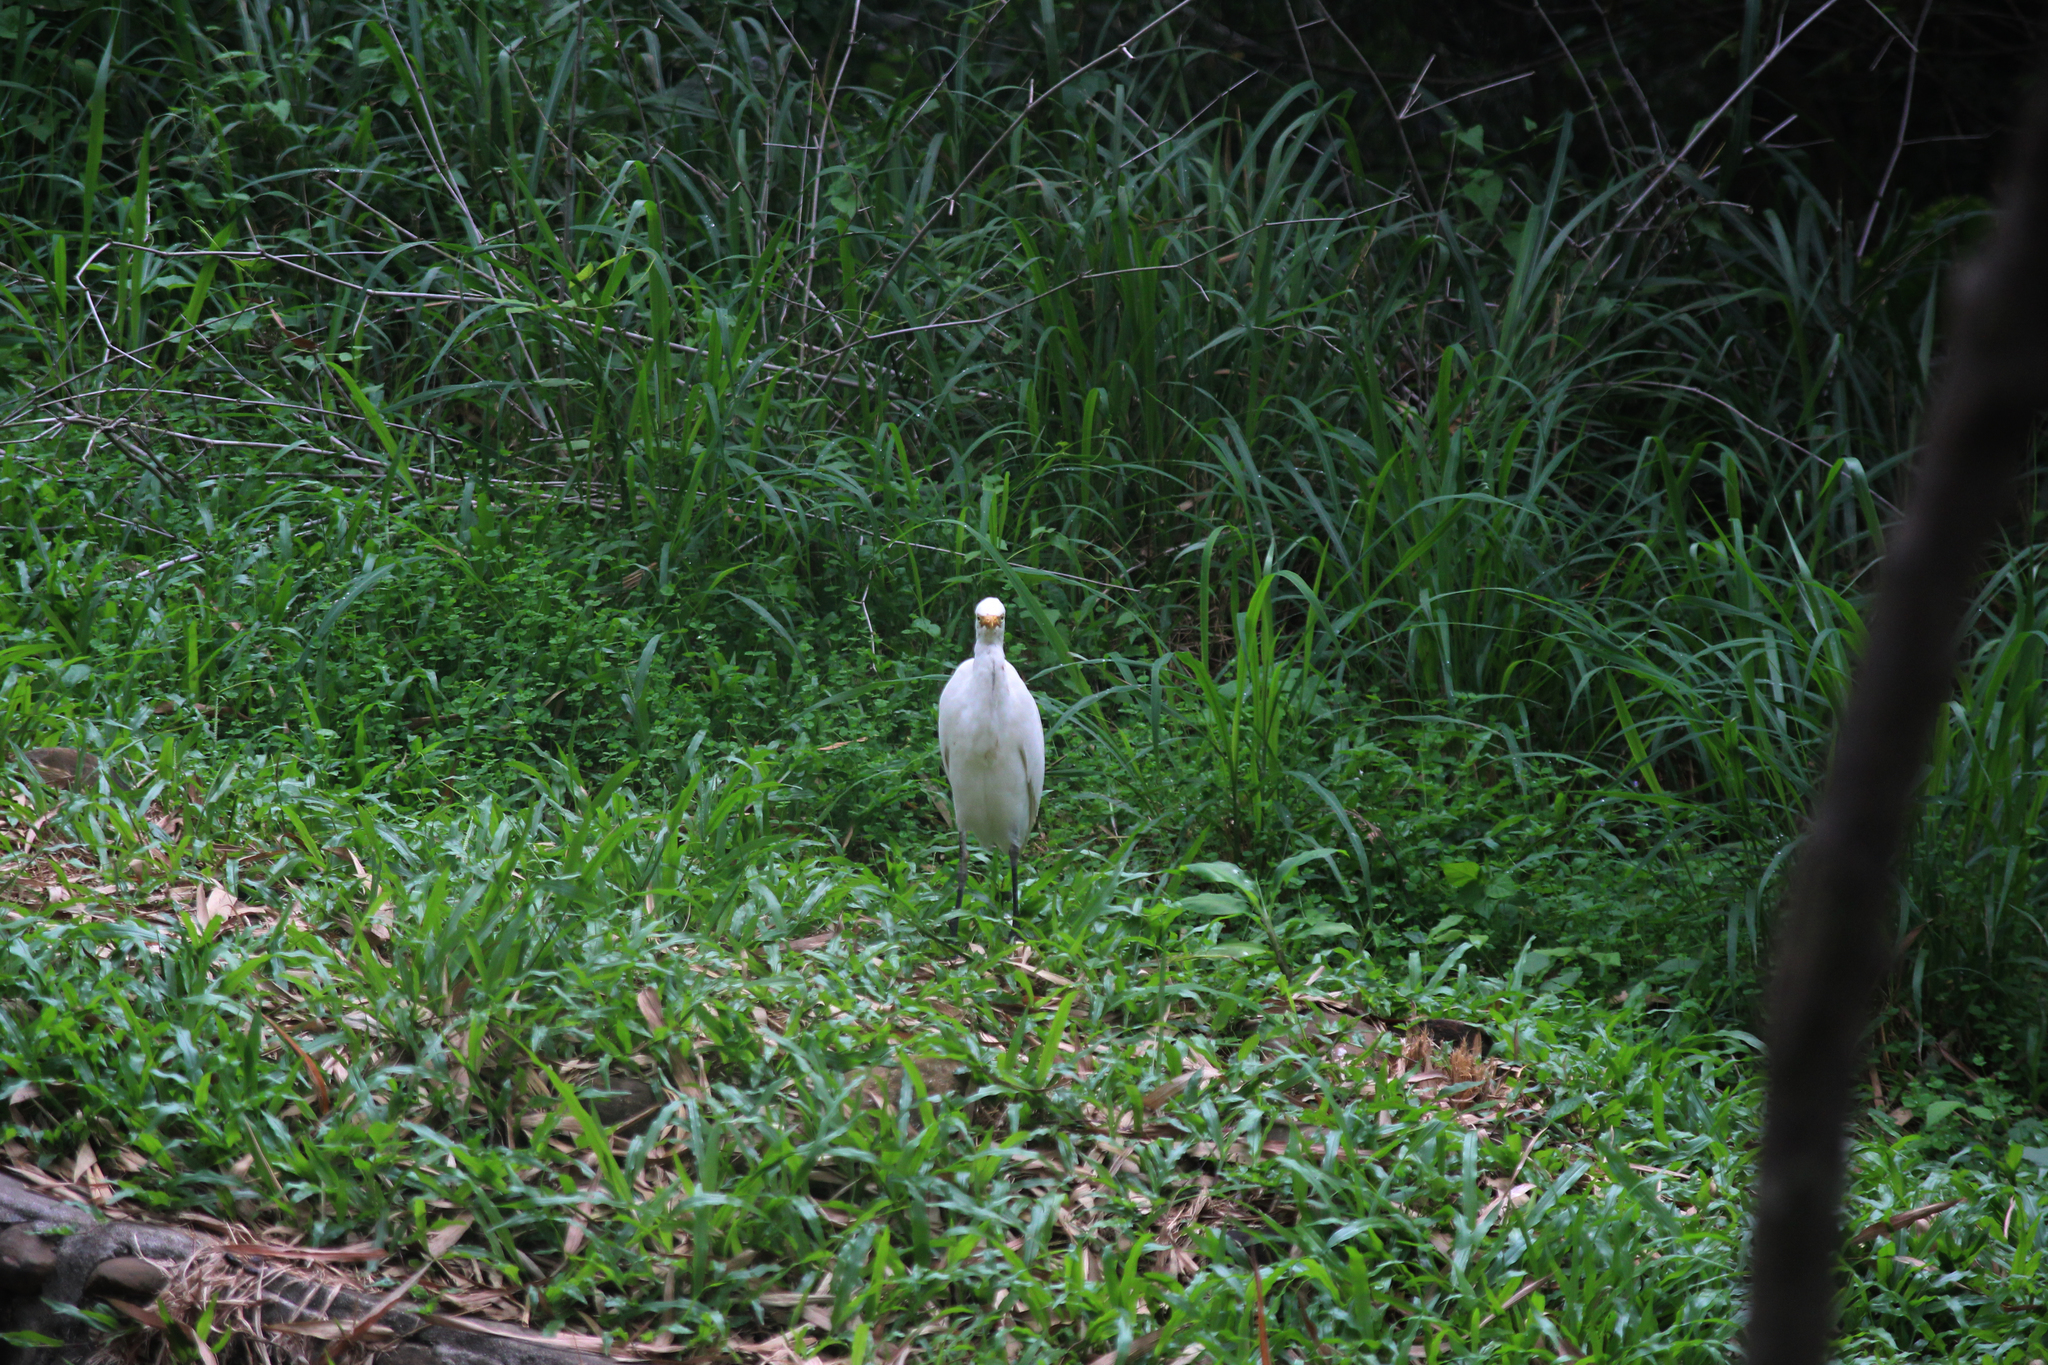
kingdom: Animalia
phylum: Chordata
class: Aves
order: Pelecaniformes
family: Ardeidae
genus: Bubulcus
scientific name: Bubulcus coromandus
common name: Eastern cattle egret
